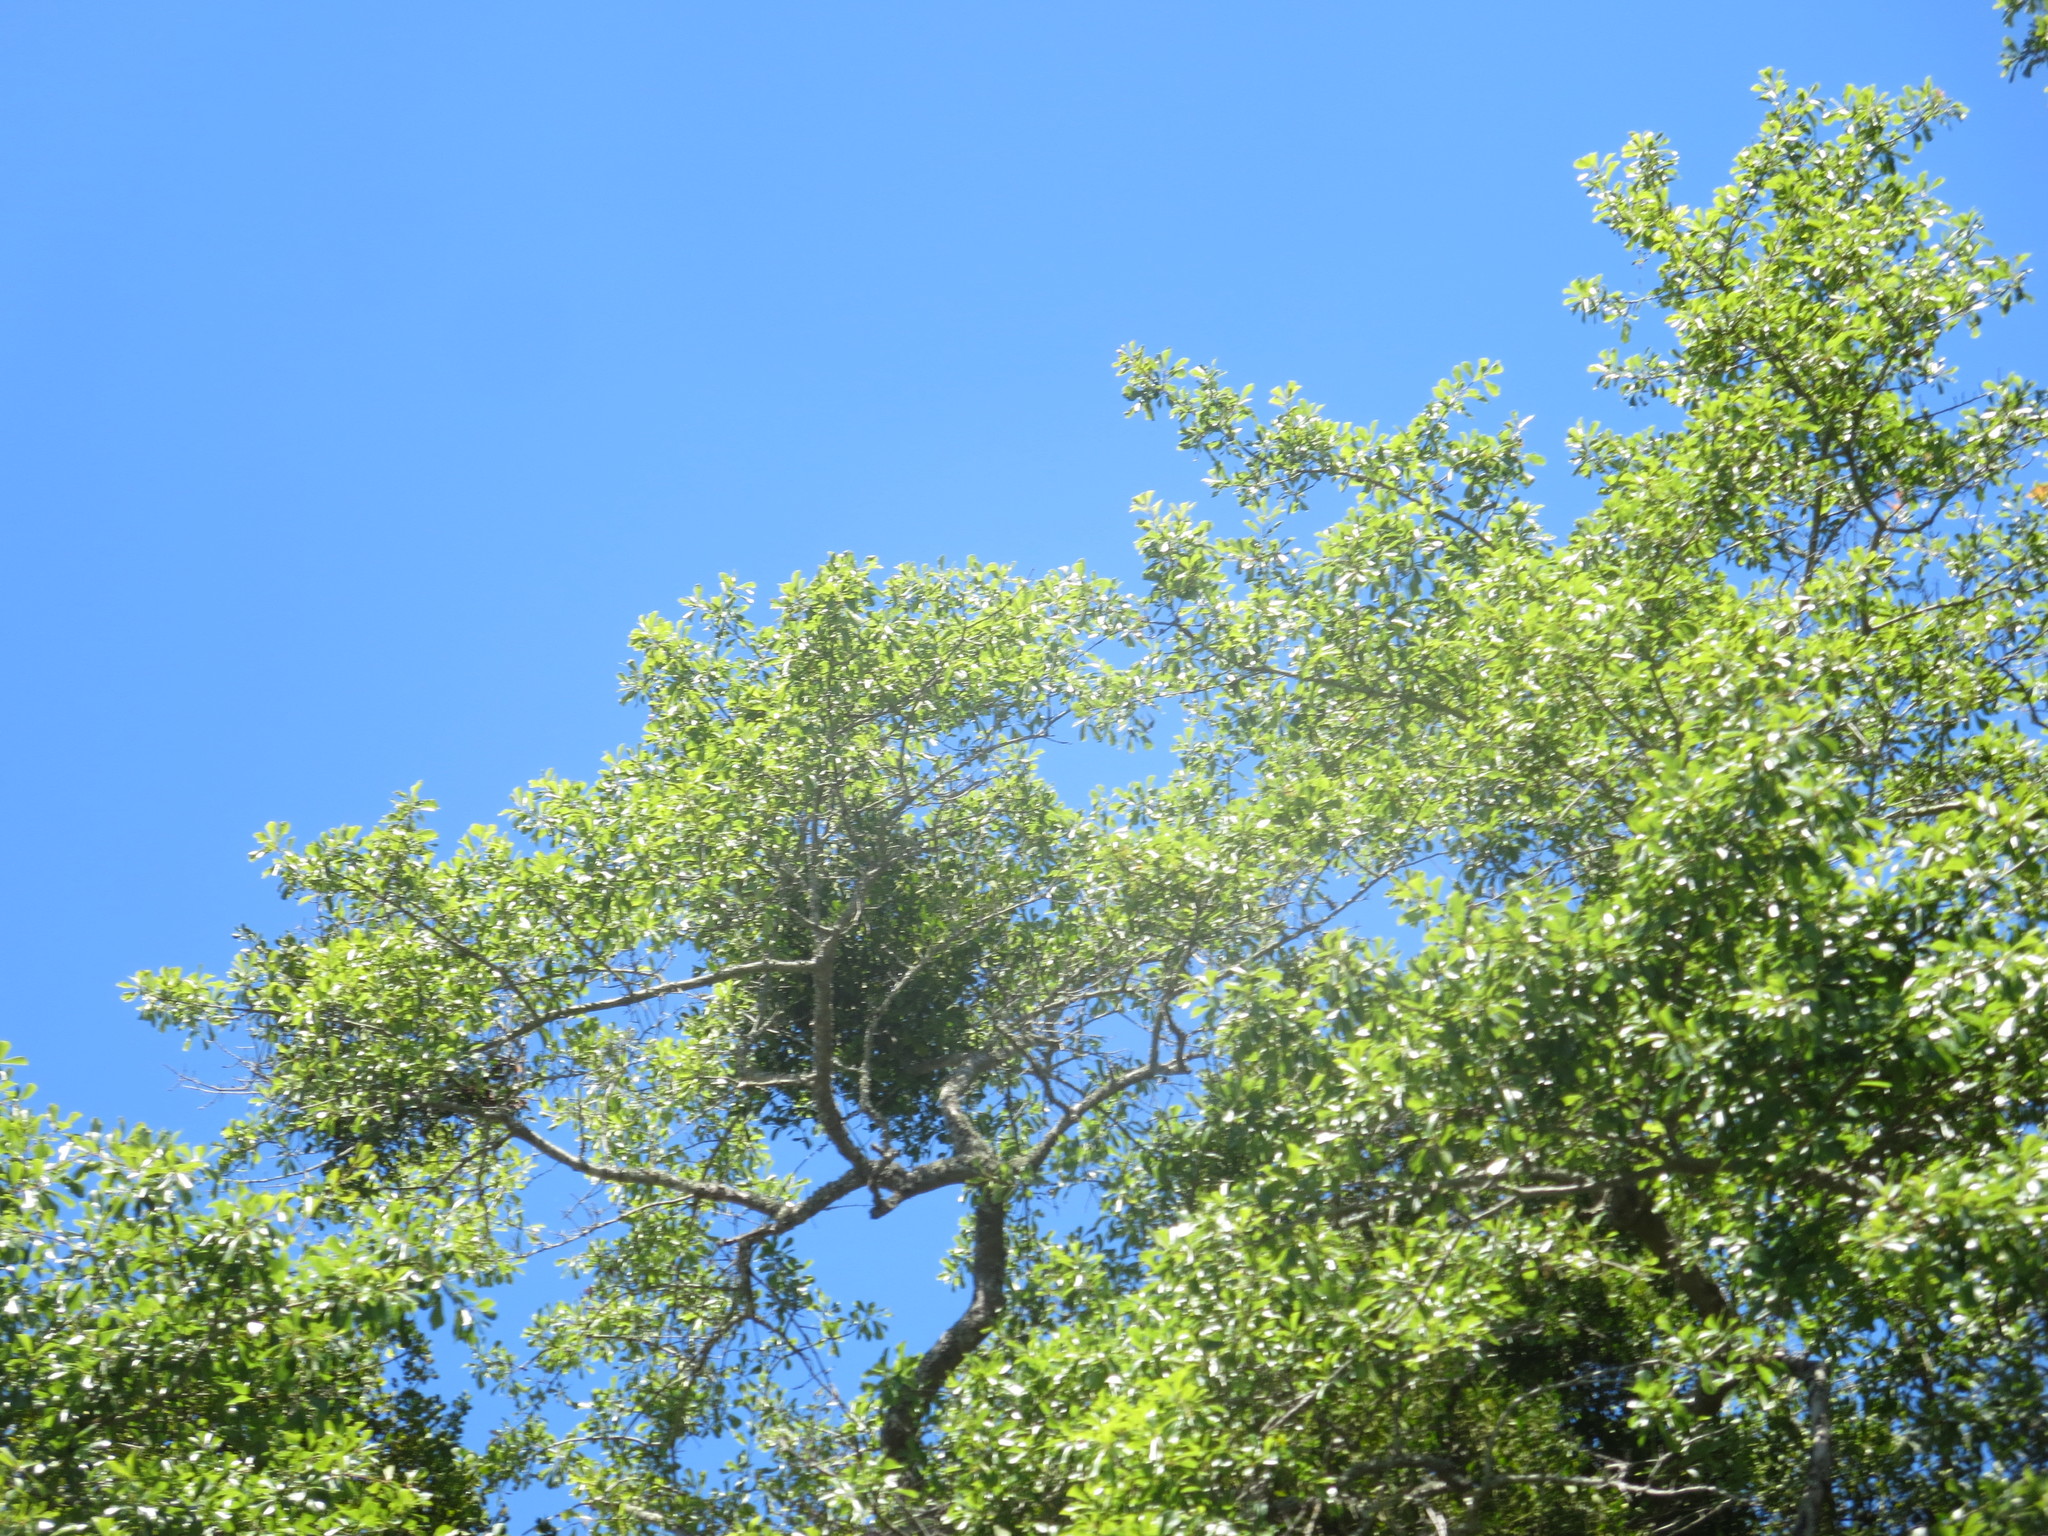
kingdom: Plantae
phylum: Tracheophyta
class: Magnoliopsida
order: Santalales
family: Viscaceae
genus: Phoradendron
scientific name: Phoradendron leucarpum
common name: Pacific mistletoe
